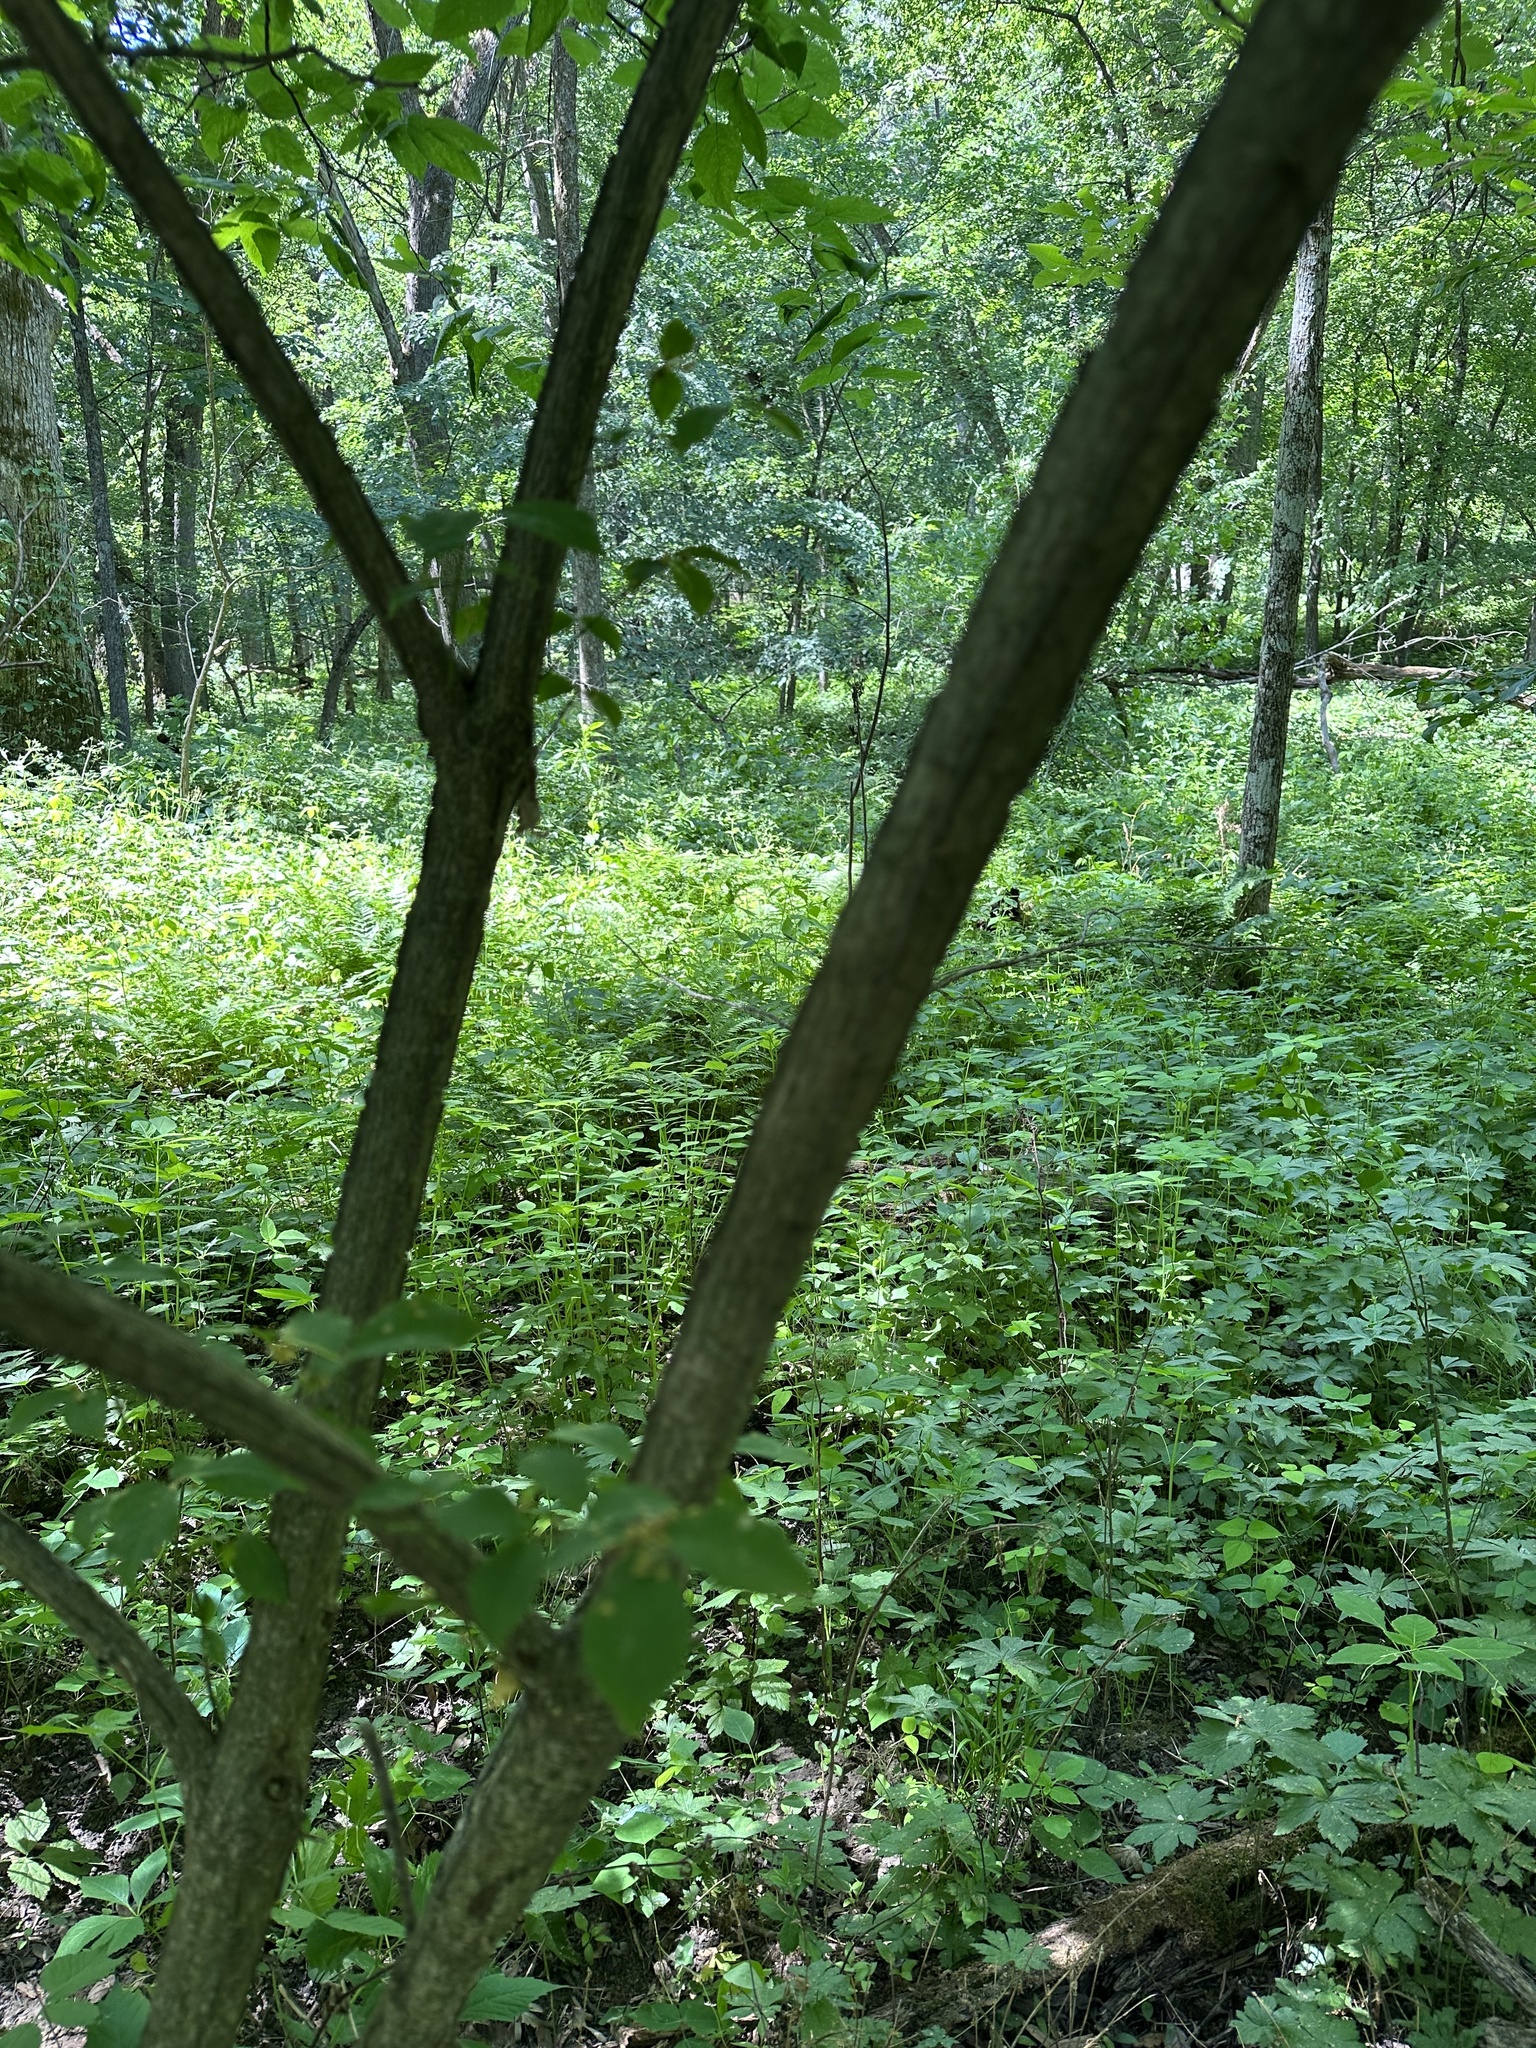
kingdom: Plantae
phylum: Tracheophyta
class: Magnoliopsida
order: Celastrales
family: Celastraceae
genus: Euonymus
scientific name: Euonymus alatus
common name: Winged euonymus
